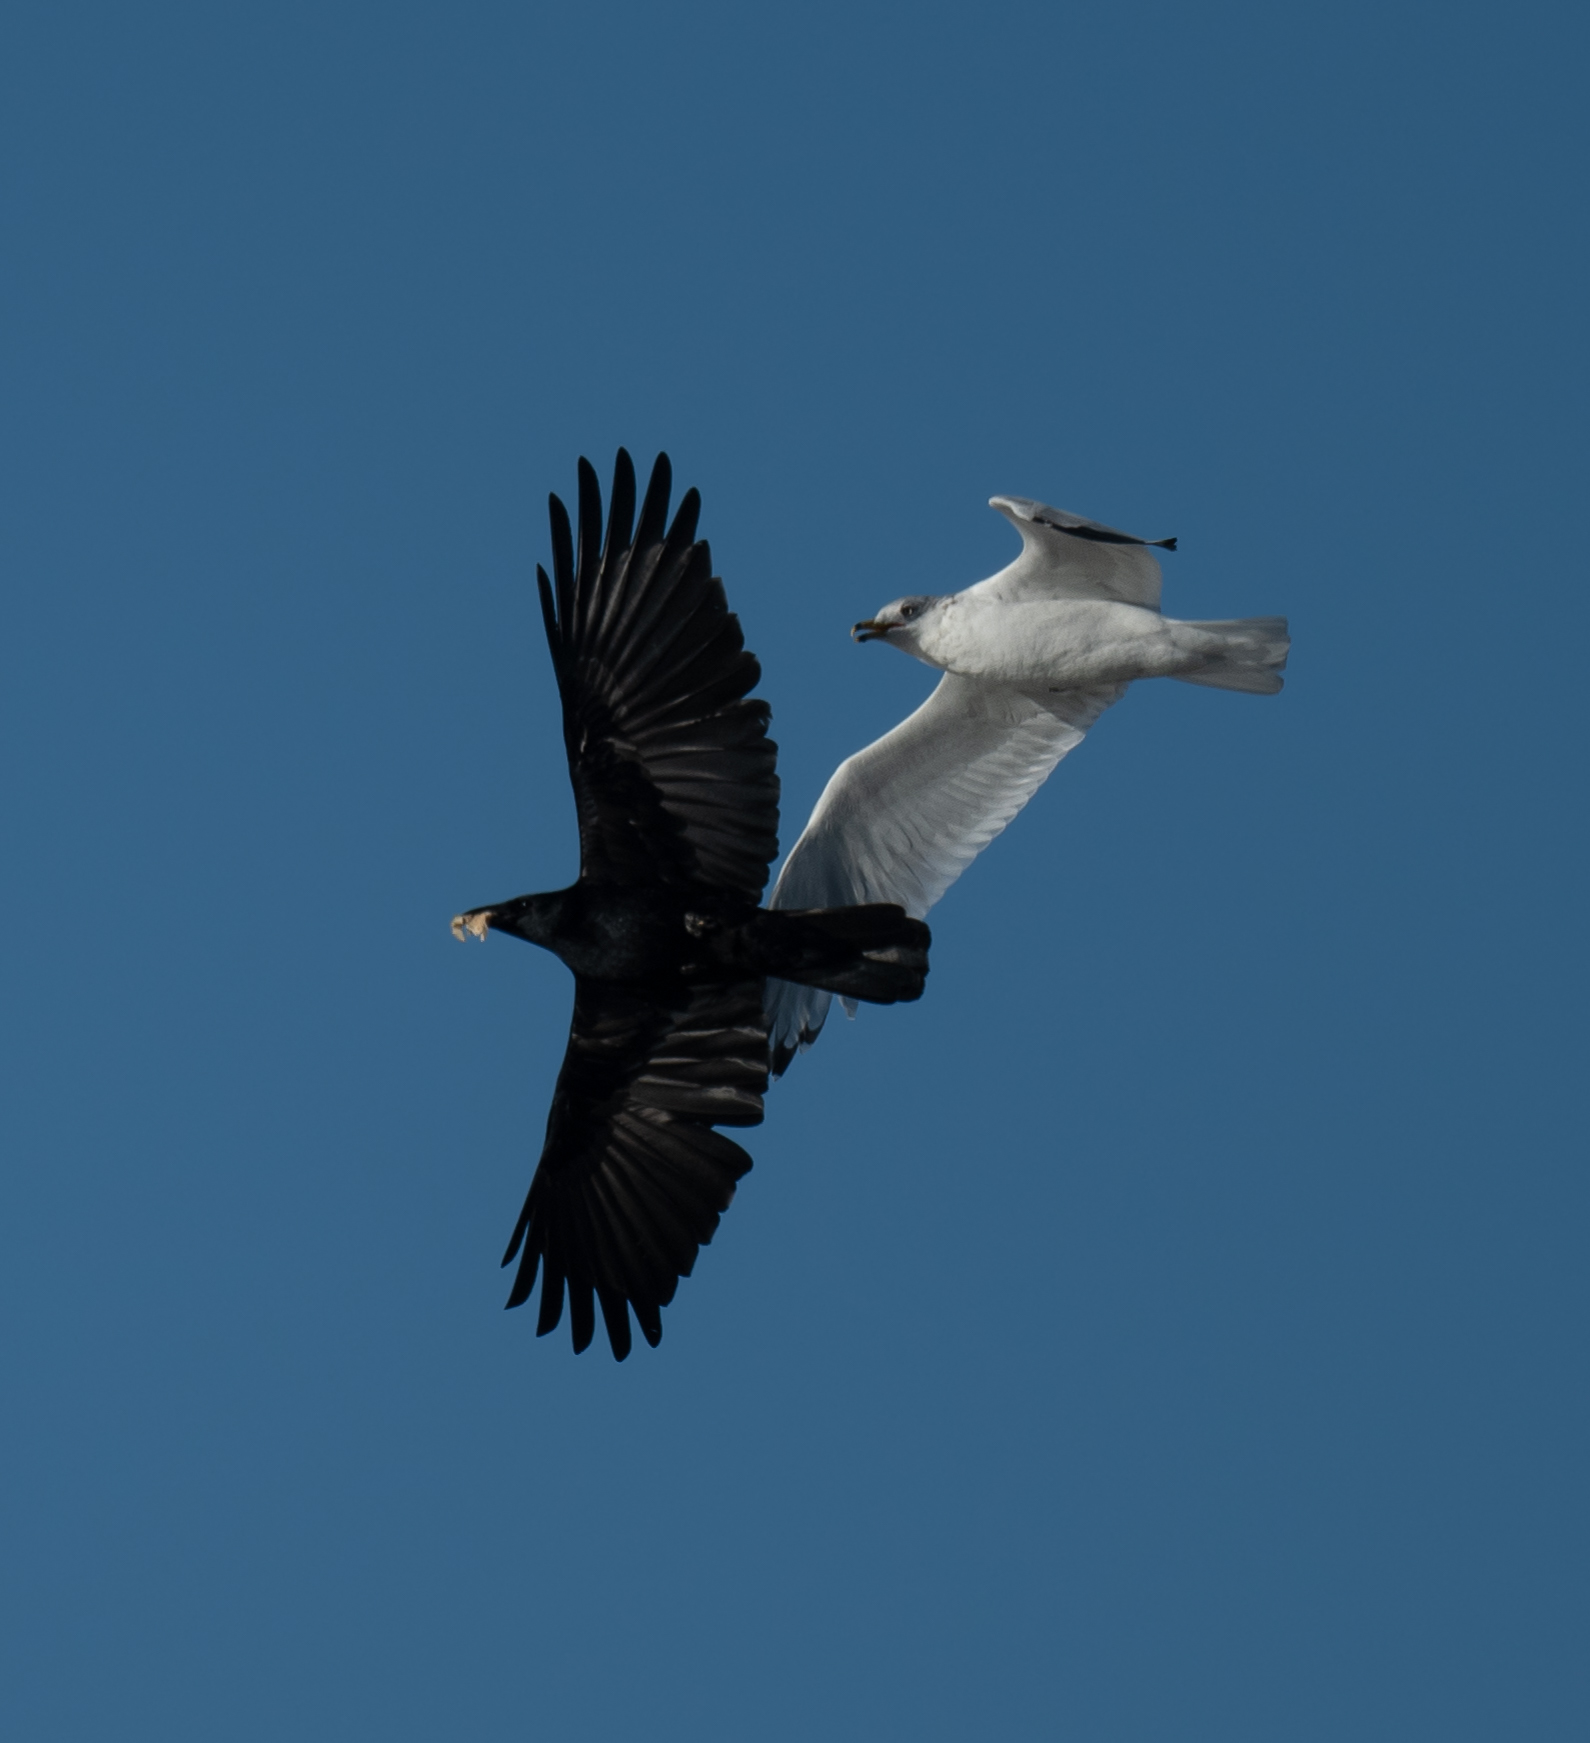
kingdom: Animalia
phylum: Chordata
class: Aves
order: Passeriformes
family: Corvidae
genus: Corvus
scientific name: Corvus brachyrhynchos
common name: American crow
